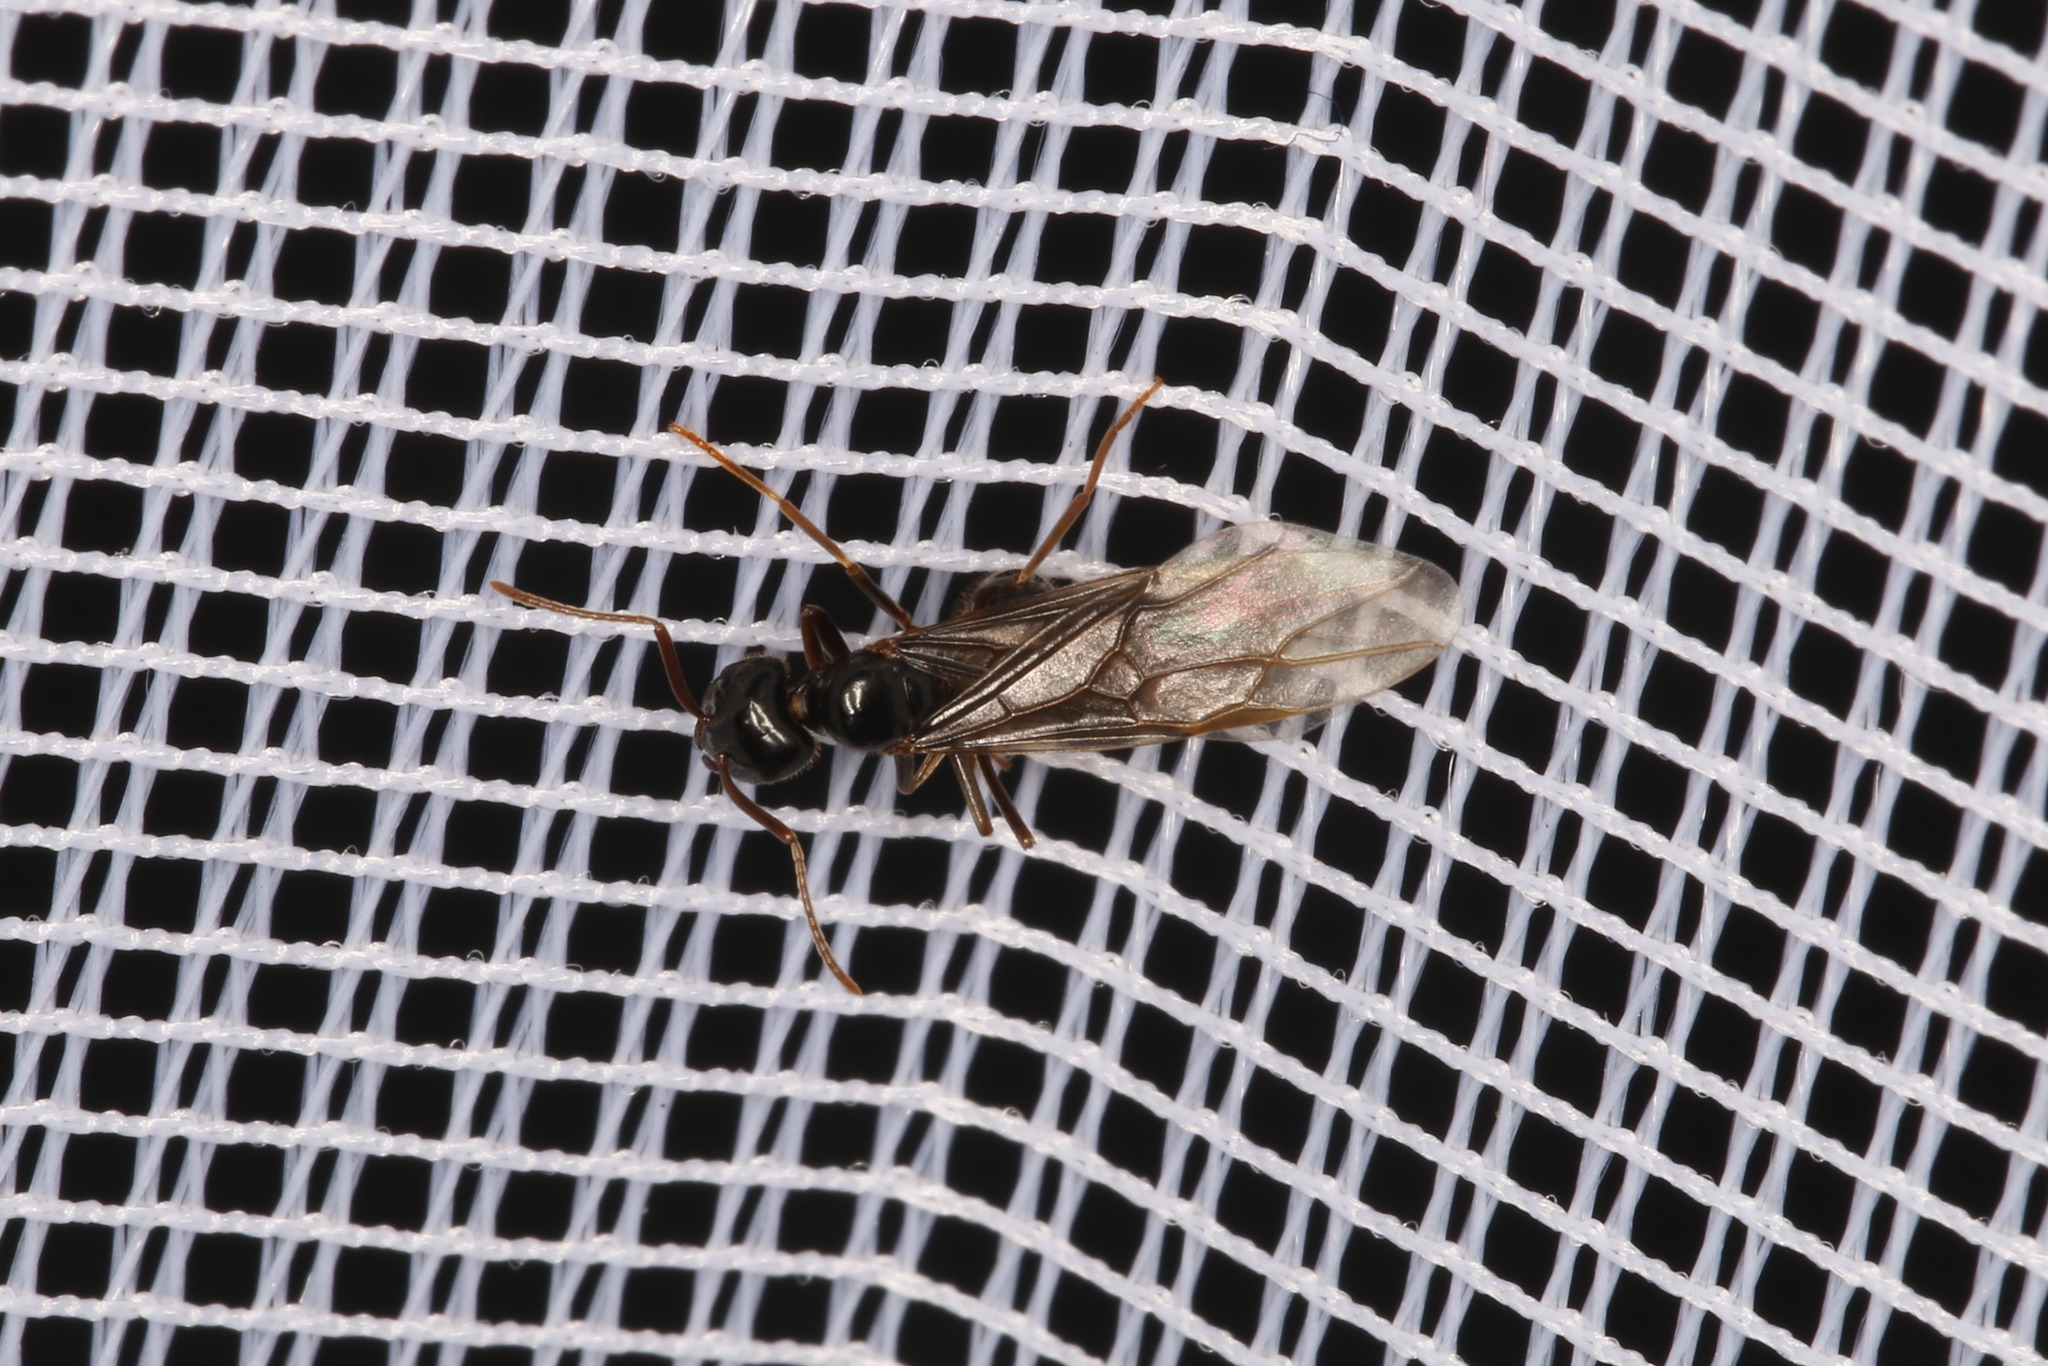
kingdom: Animalia
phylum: Arthropoda
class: Insecta
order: Hymenoptera
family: Formicidae
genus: Lasius
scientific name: Lasius fuliginosus
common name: Jet ant
